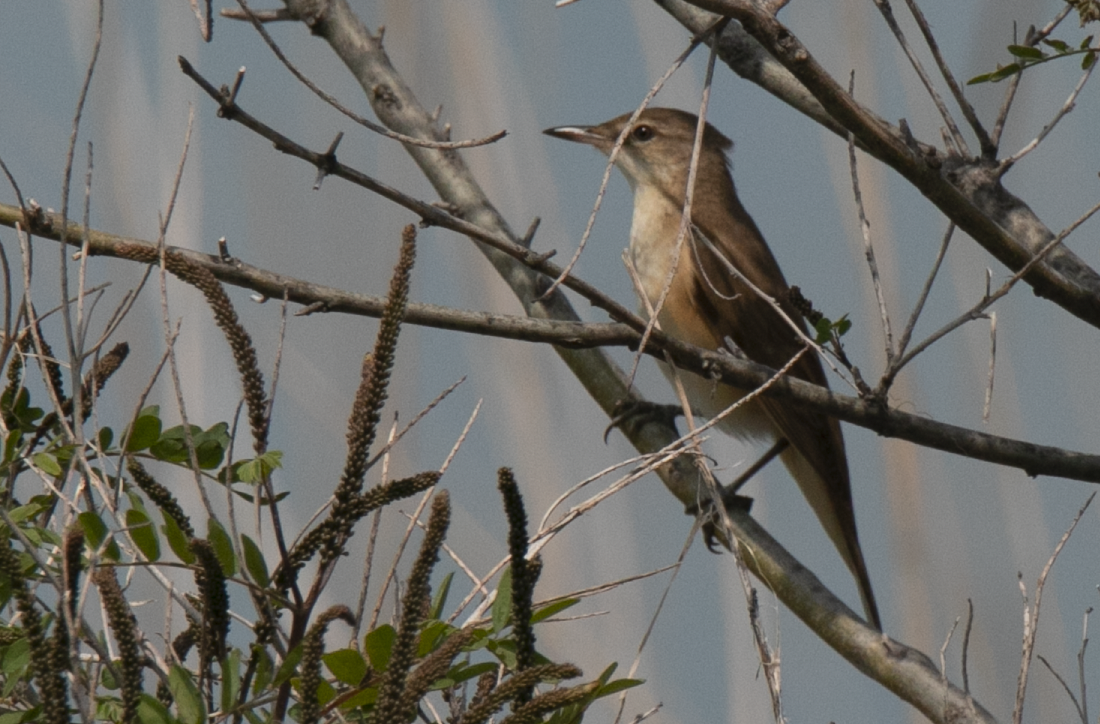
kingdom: Animalia
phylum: Chordata
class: Aves
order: Passeriformes
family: Acrocephalidae
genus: Acrocephalus
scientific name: Acrocephalus arundinaceus
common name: Great reed warbler
